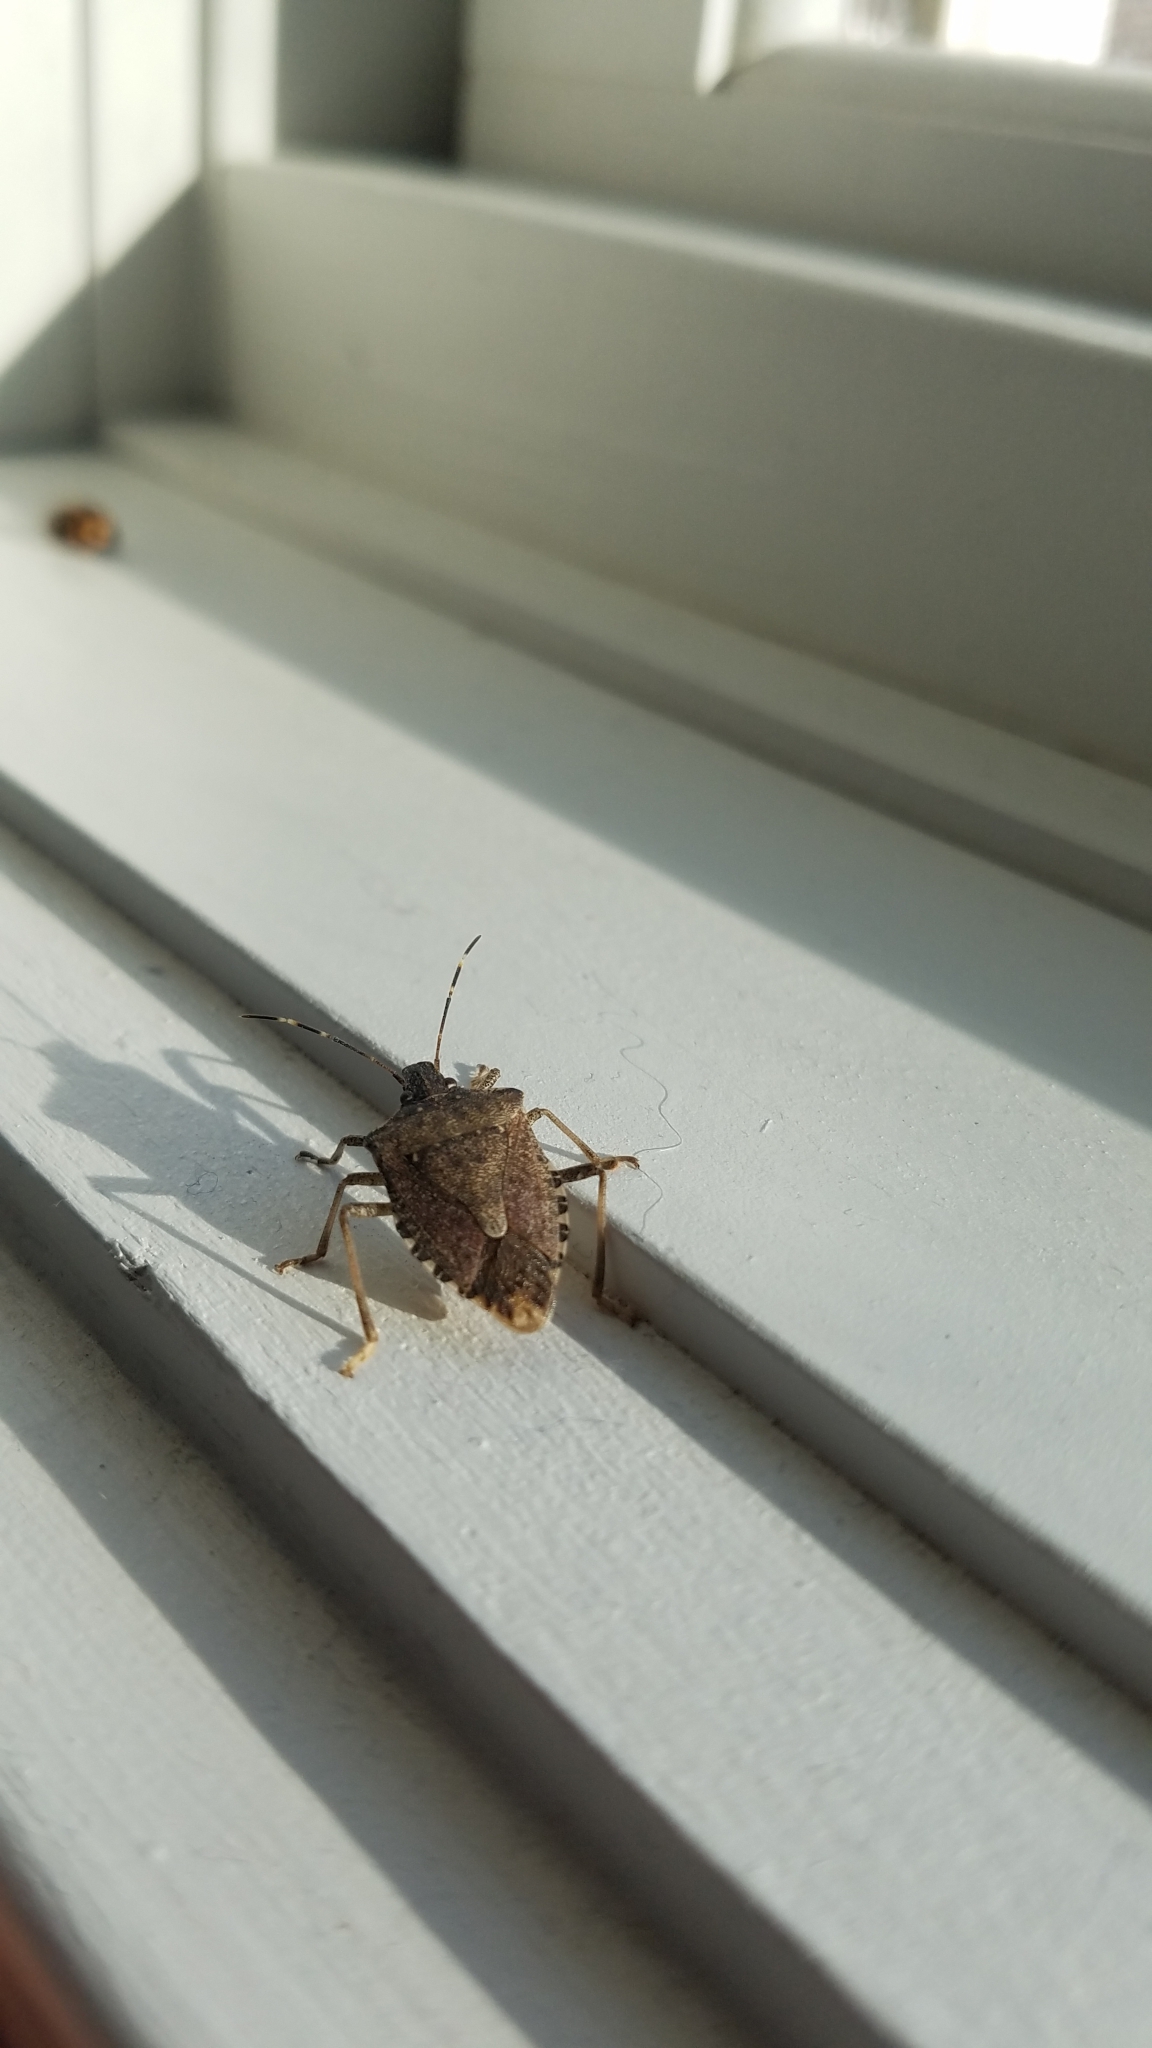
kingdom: Animalia
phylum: Arthropoda
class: Insecta
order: Hemiptera
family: Pentatomidae
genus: Halyomorpha
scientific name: Halyomorpha halys
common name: Brown marmorated stink bug
